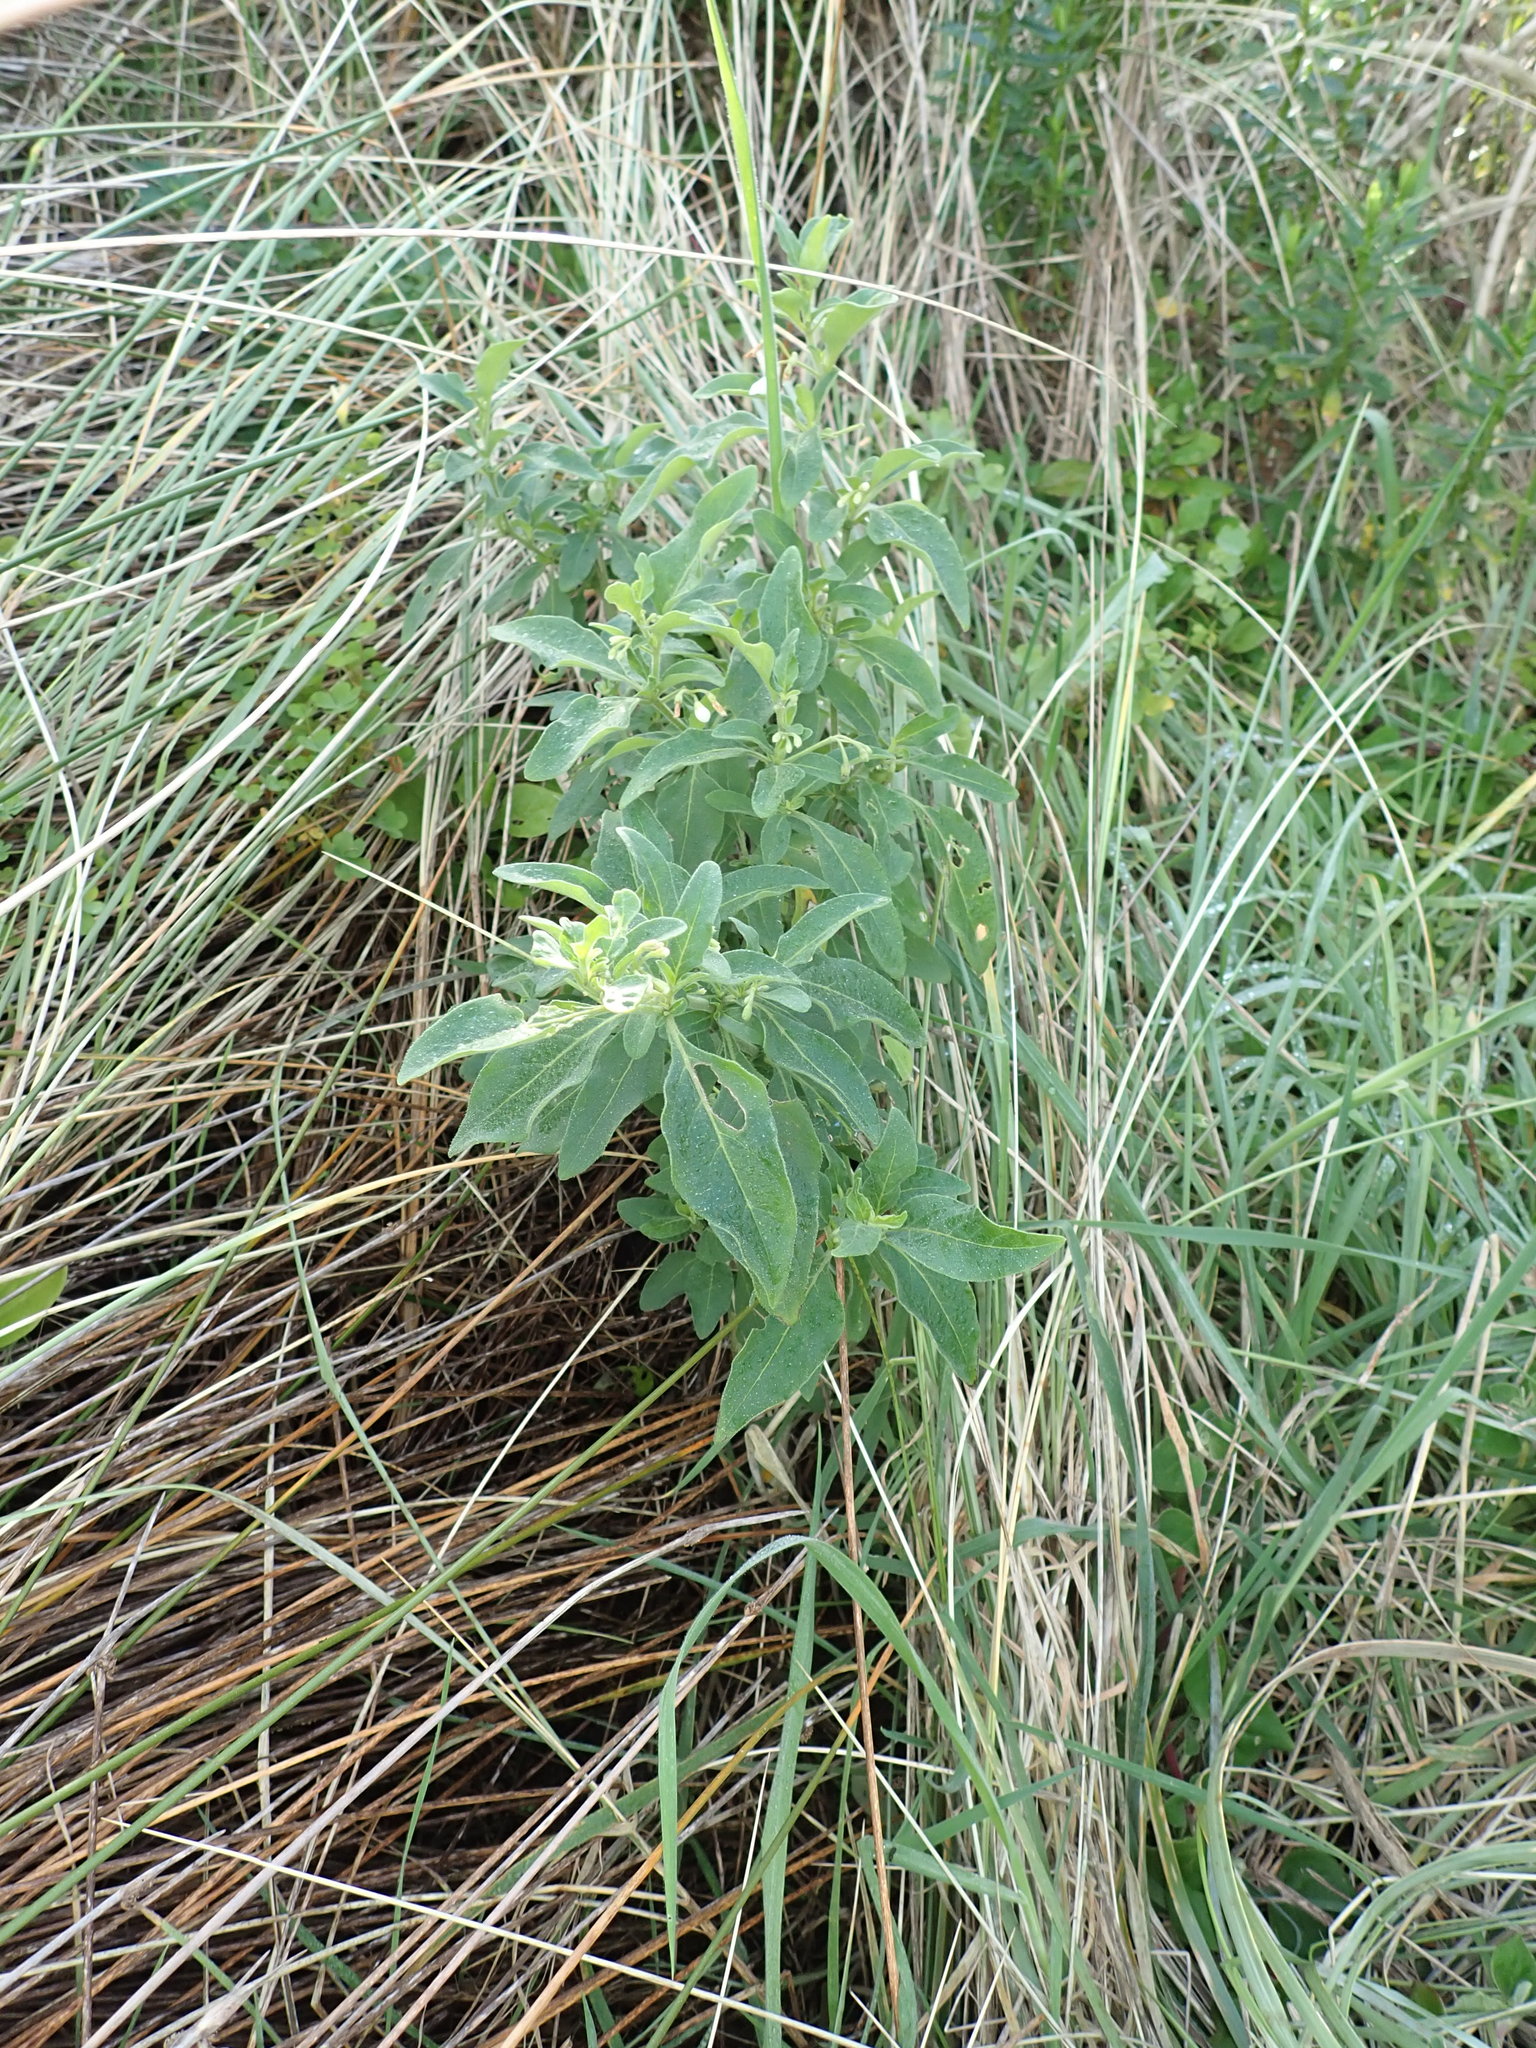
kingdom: Plantae
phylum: Tracheophyta
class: Magnoliopsida
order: Solanales
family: Solanaceae
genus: Solanum
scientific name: Solanum chenopodioides
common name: Tall nightshade
